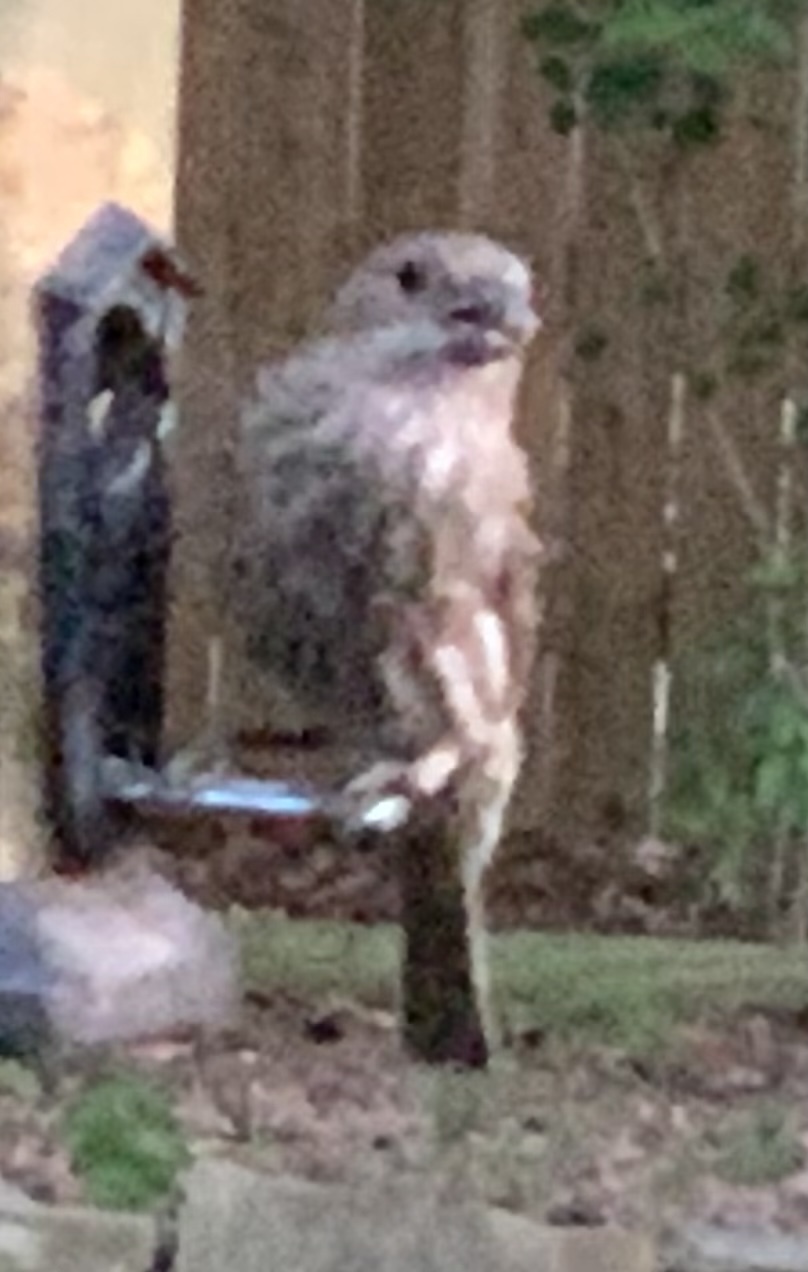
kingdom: Animalia
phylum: Chordata
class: Aves
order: Passeriformes
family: Fringillidae
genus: Haemorhous
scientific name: Haemorhous mexicanus
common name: House finch
